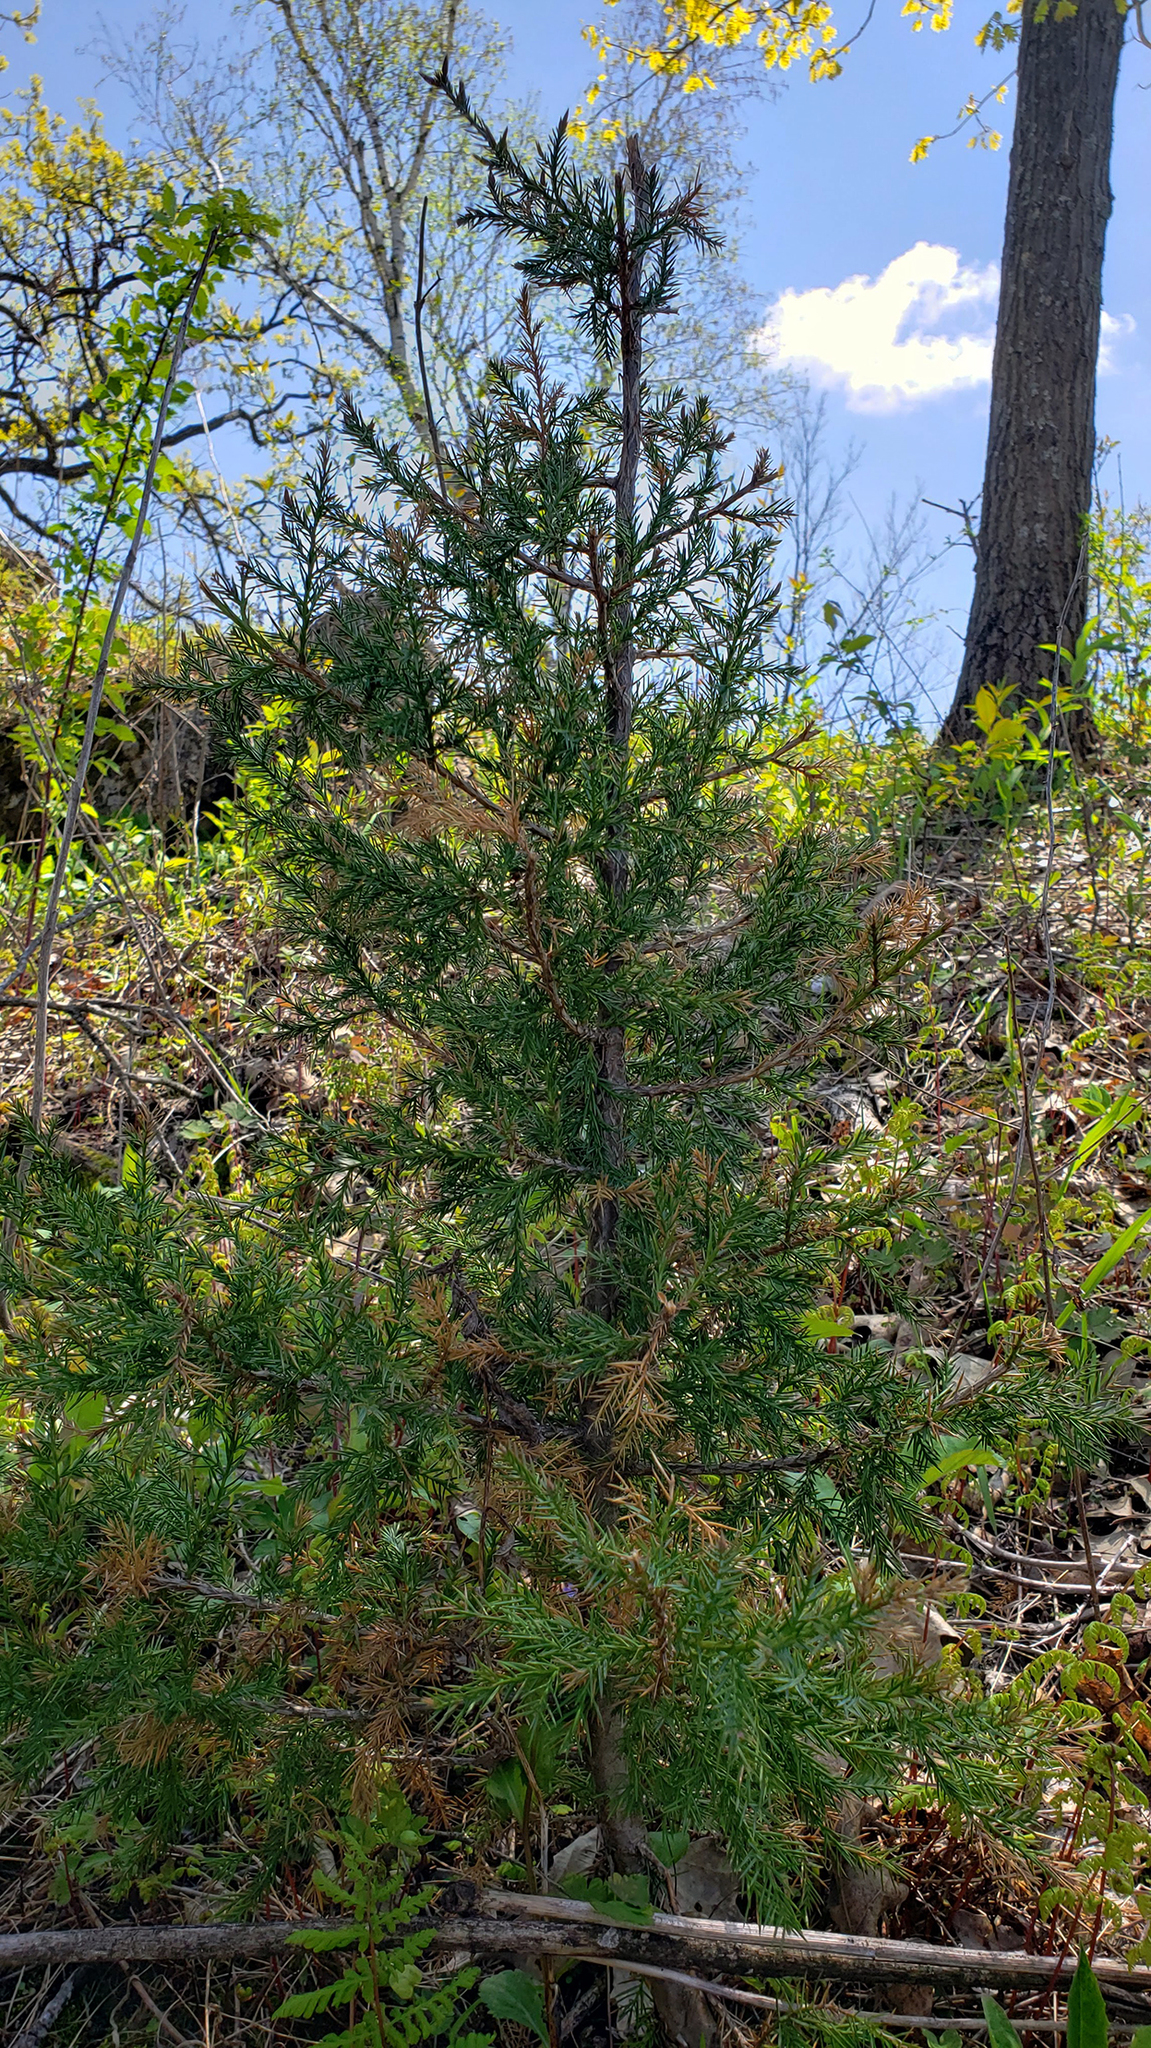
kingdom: Plantae
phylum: Tracheophyta
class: Pinopsida
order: Pinales
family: Cupressaceae
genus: Juniperus
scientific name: Juniperus virginiana
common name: Red juniper
